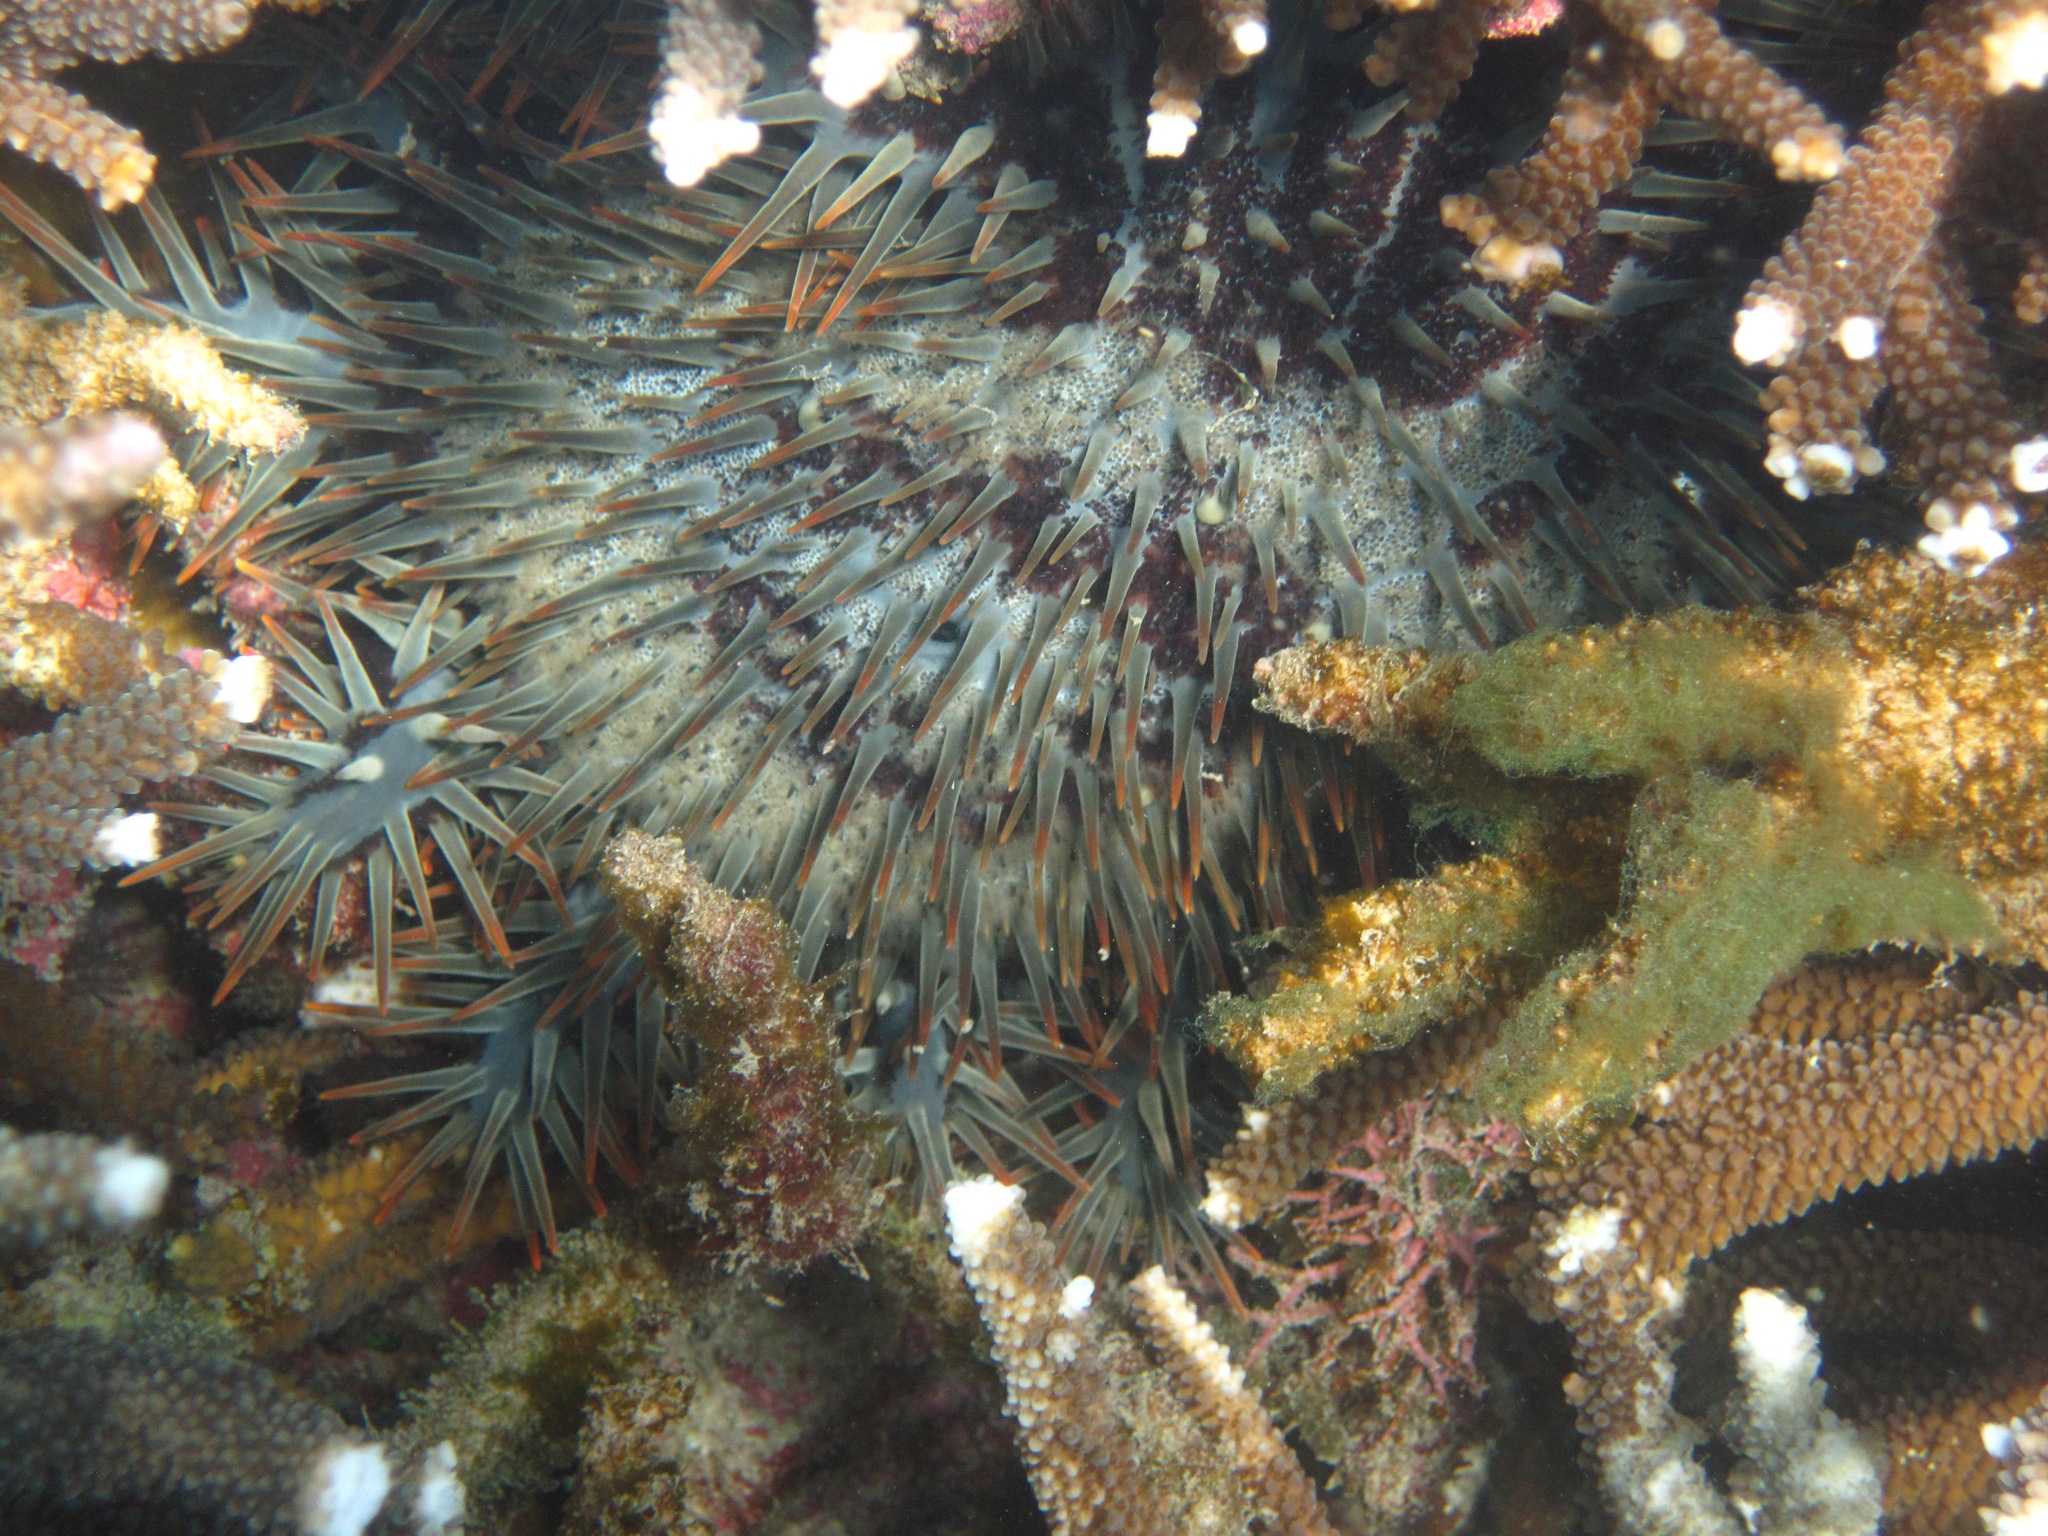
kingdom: Animalia
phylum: Echinodermata
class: Asteroidea
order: Valvatida
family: Acanthasteridae
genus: Acanthaster
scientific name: Acanthaster planci
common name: Crown-of-thorns
